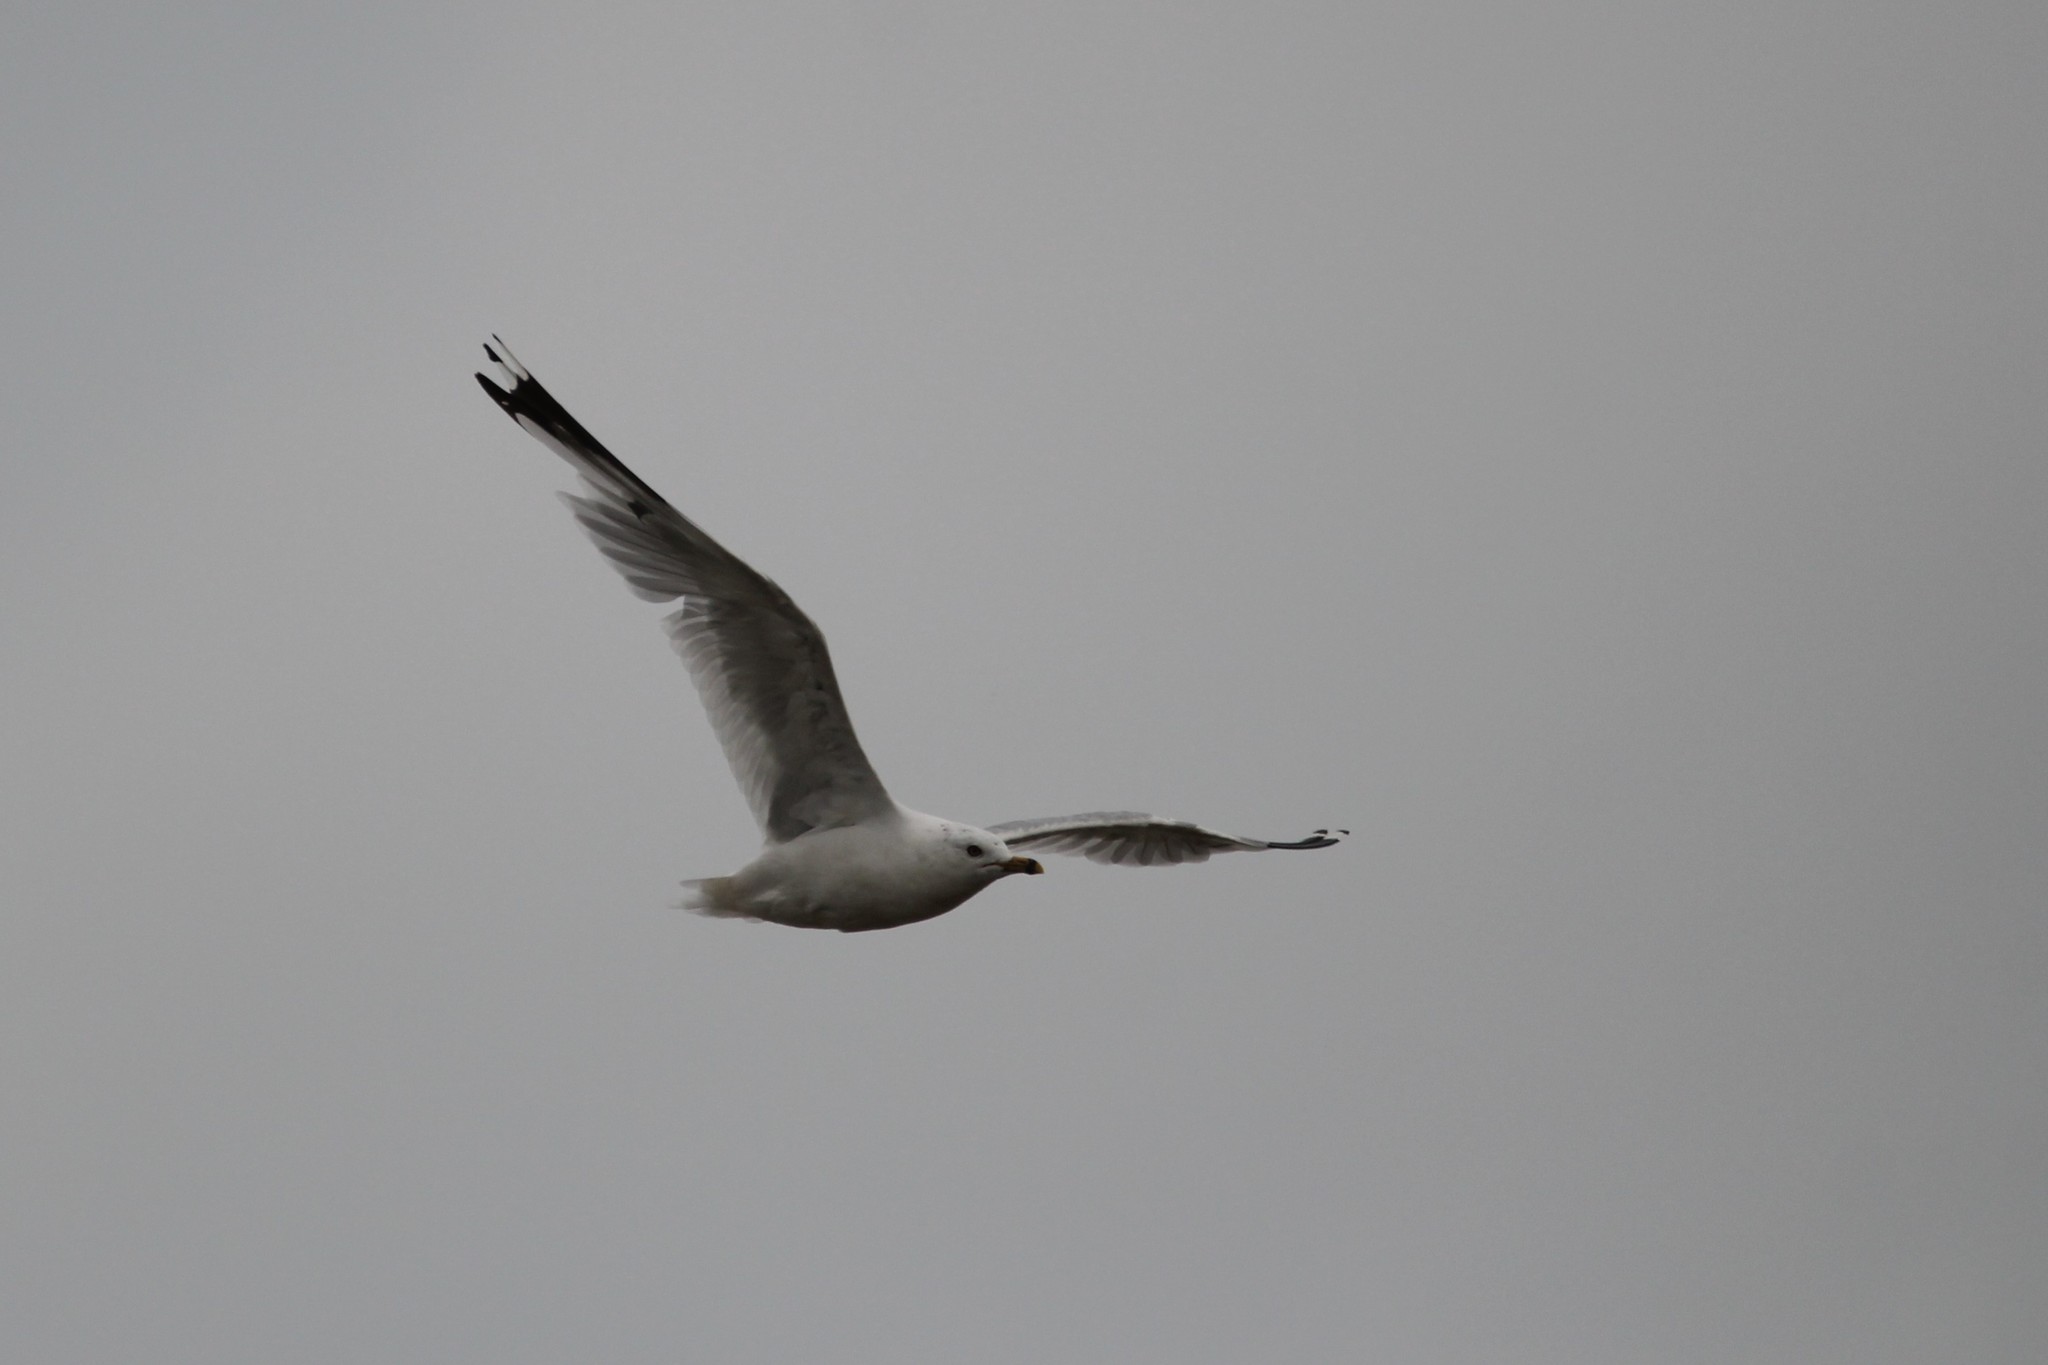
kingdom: Animalia
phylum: Chordata
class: Aves
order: Charadriiformes
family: Laridae
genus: Larus
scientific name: Larus delawarensis
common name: Ring-billed gull
